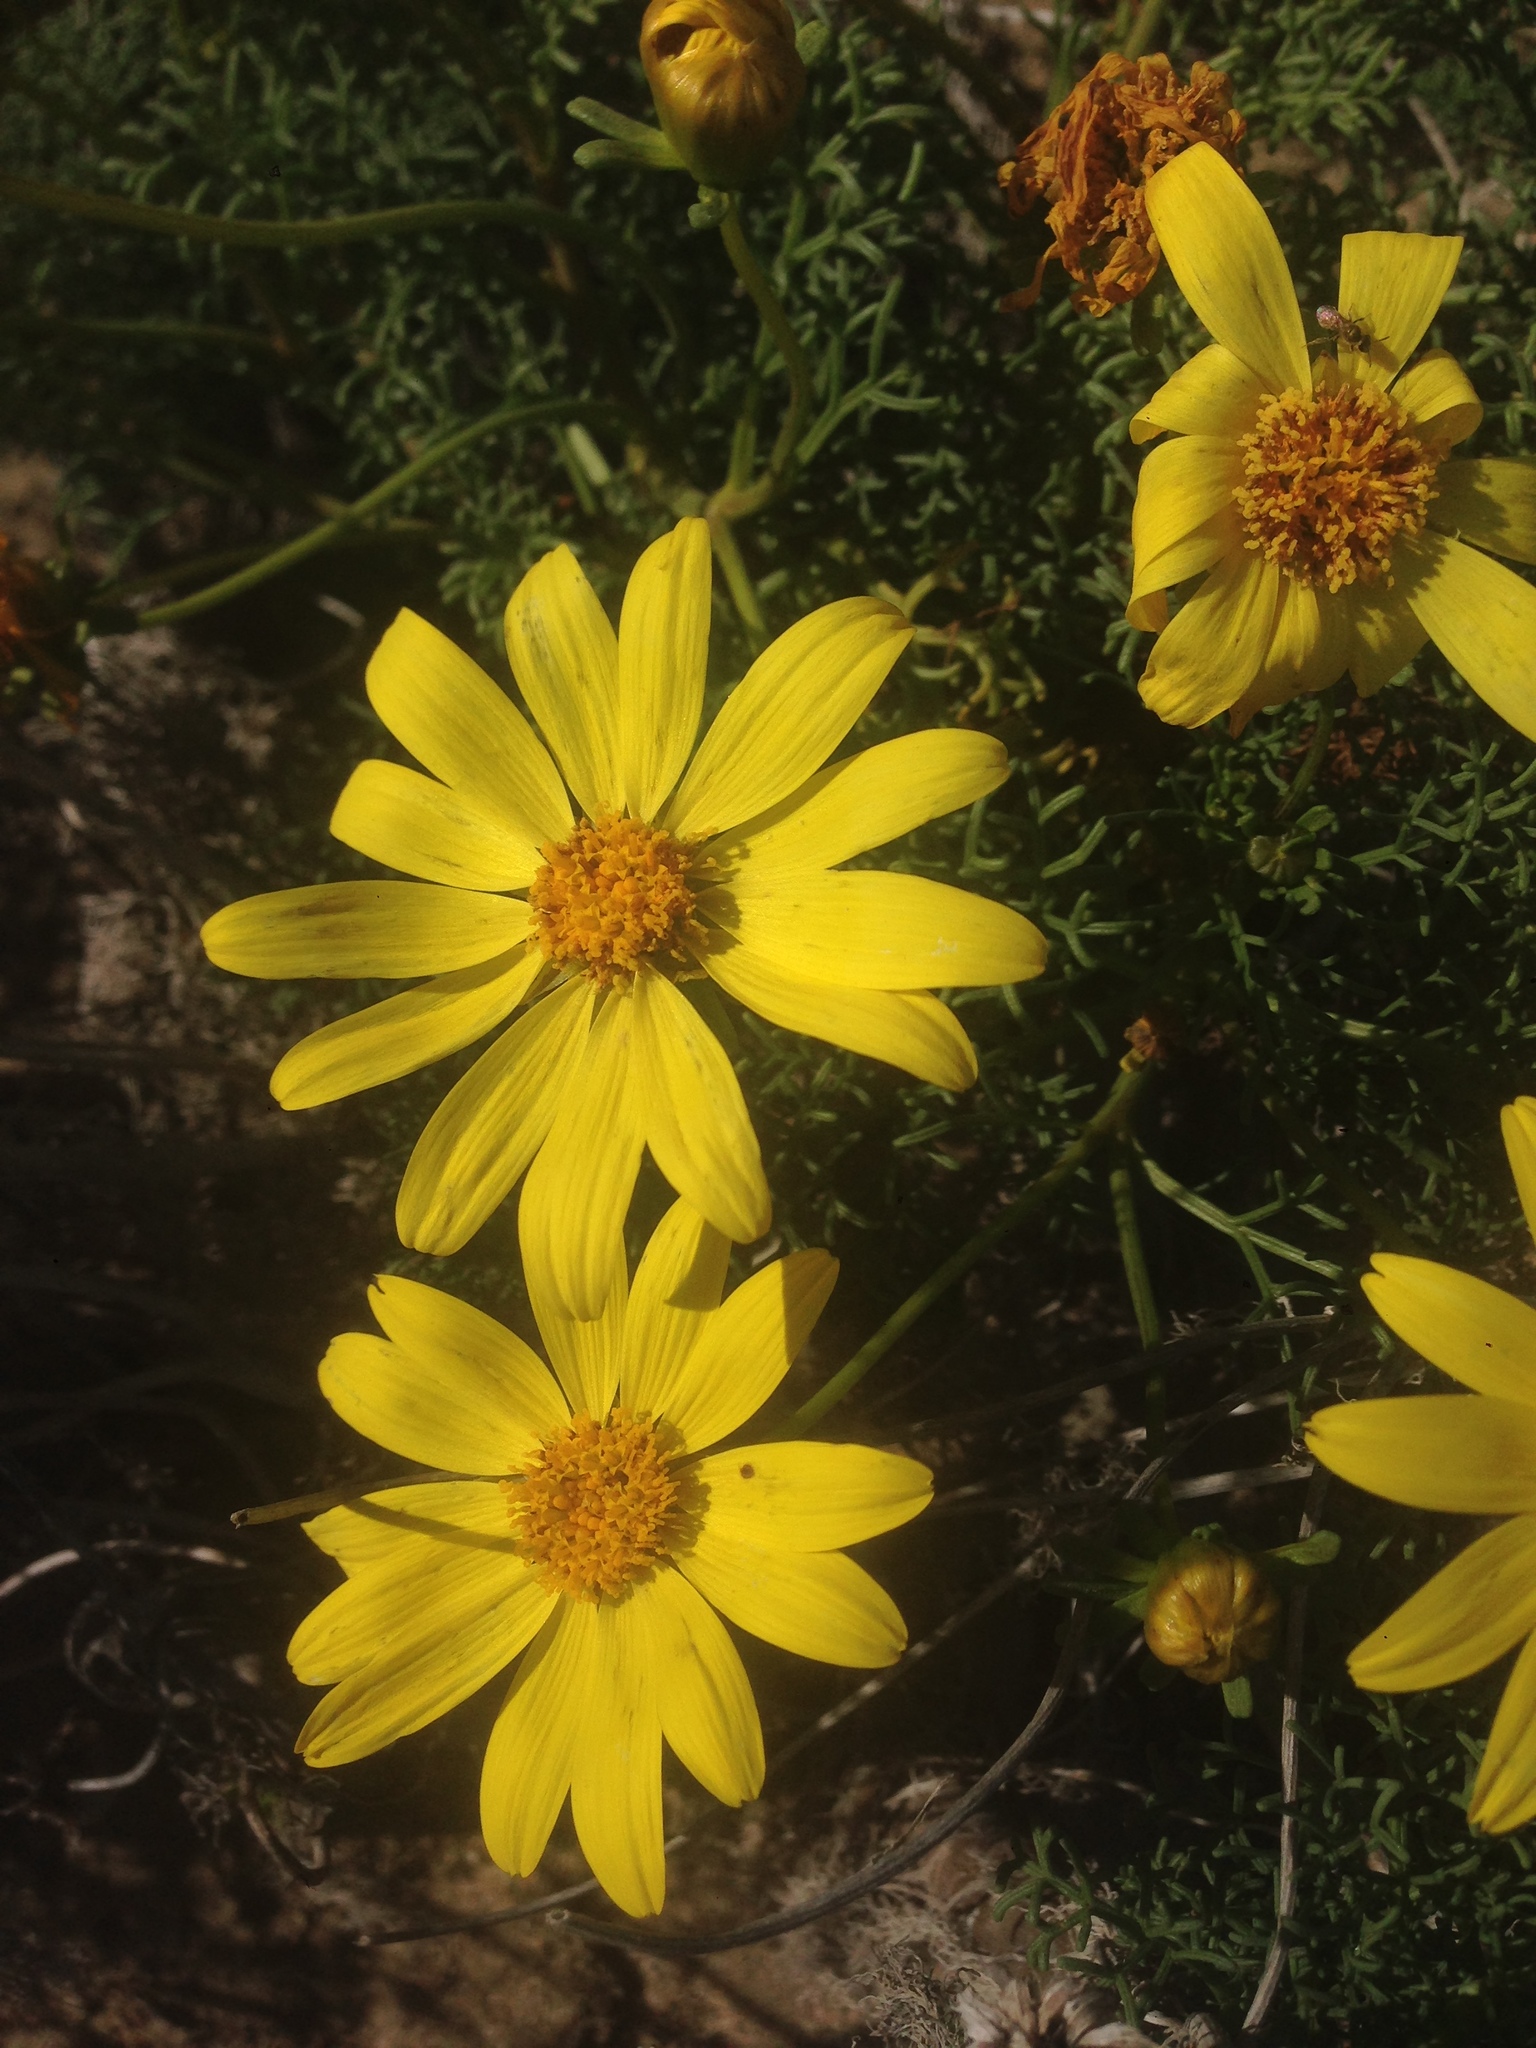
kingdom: Plantae
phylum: Tracheophyta
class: Magnoliopsida
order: Asterales
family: Asteraceae
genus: Coreopsis
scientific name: Coreopsis gigantea
